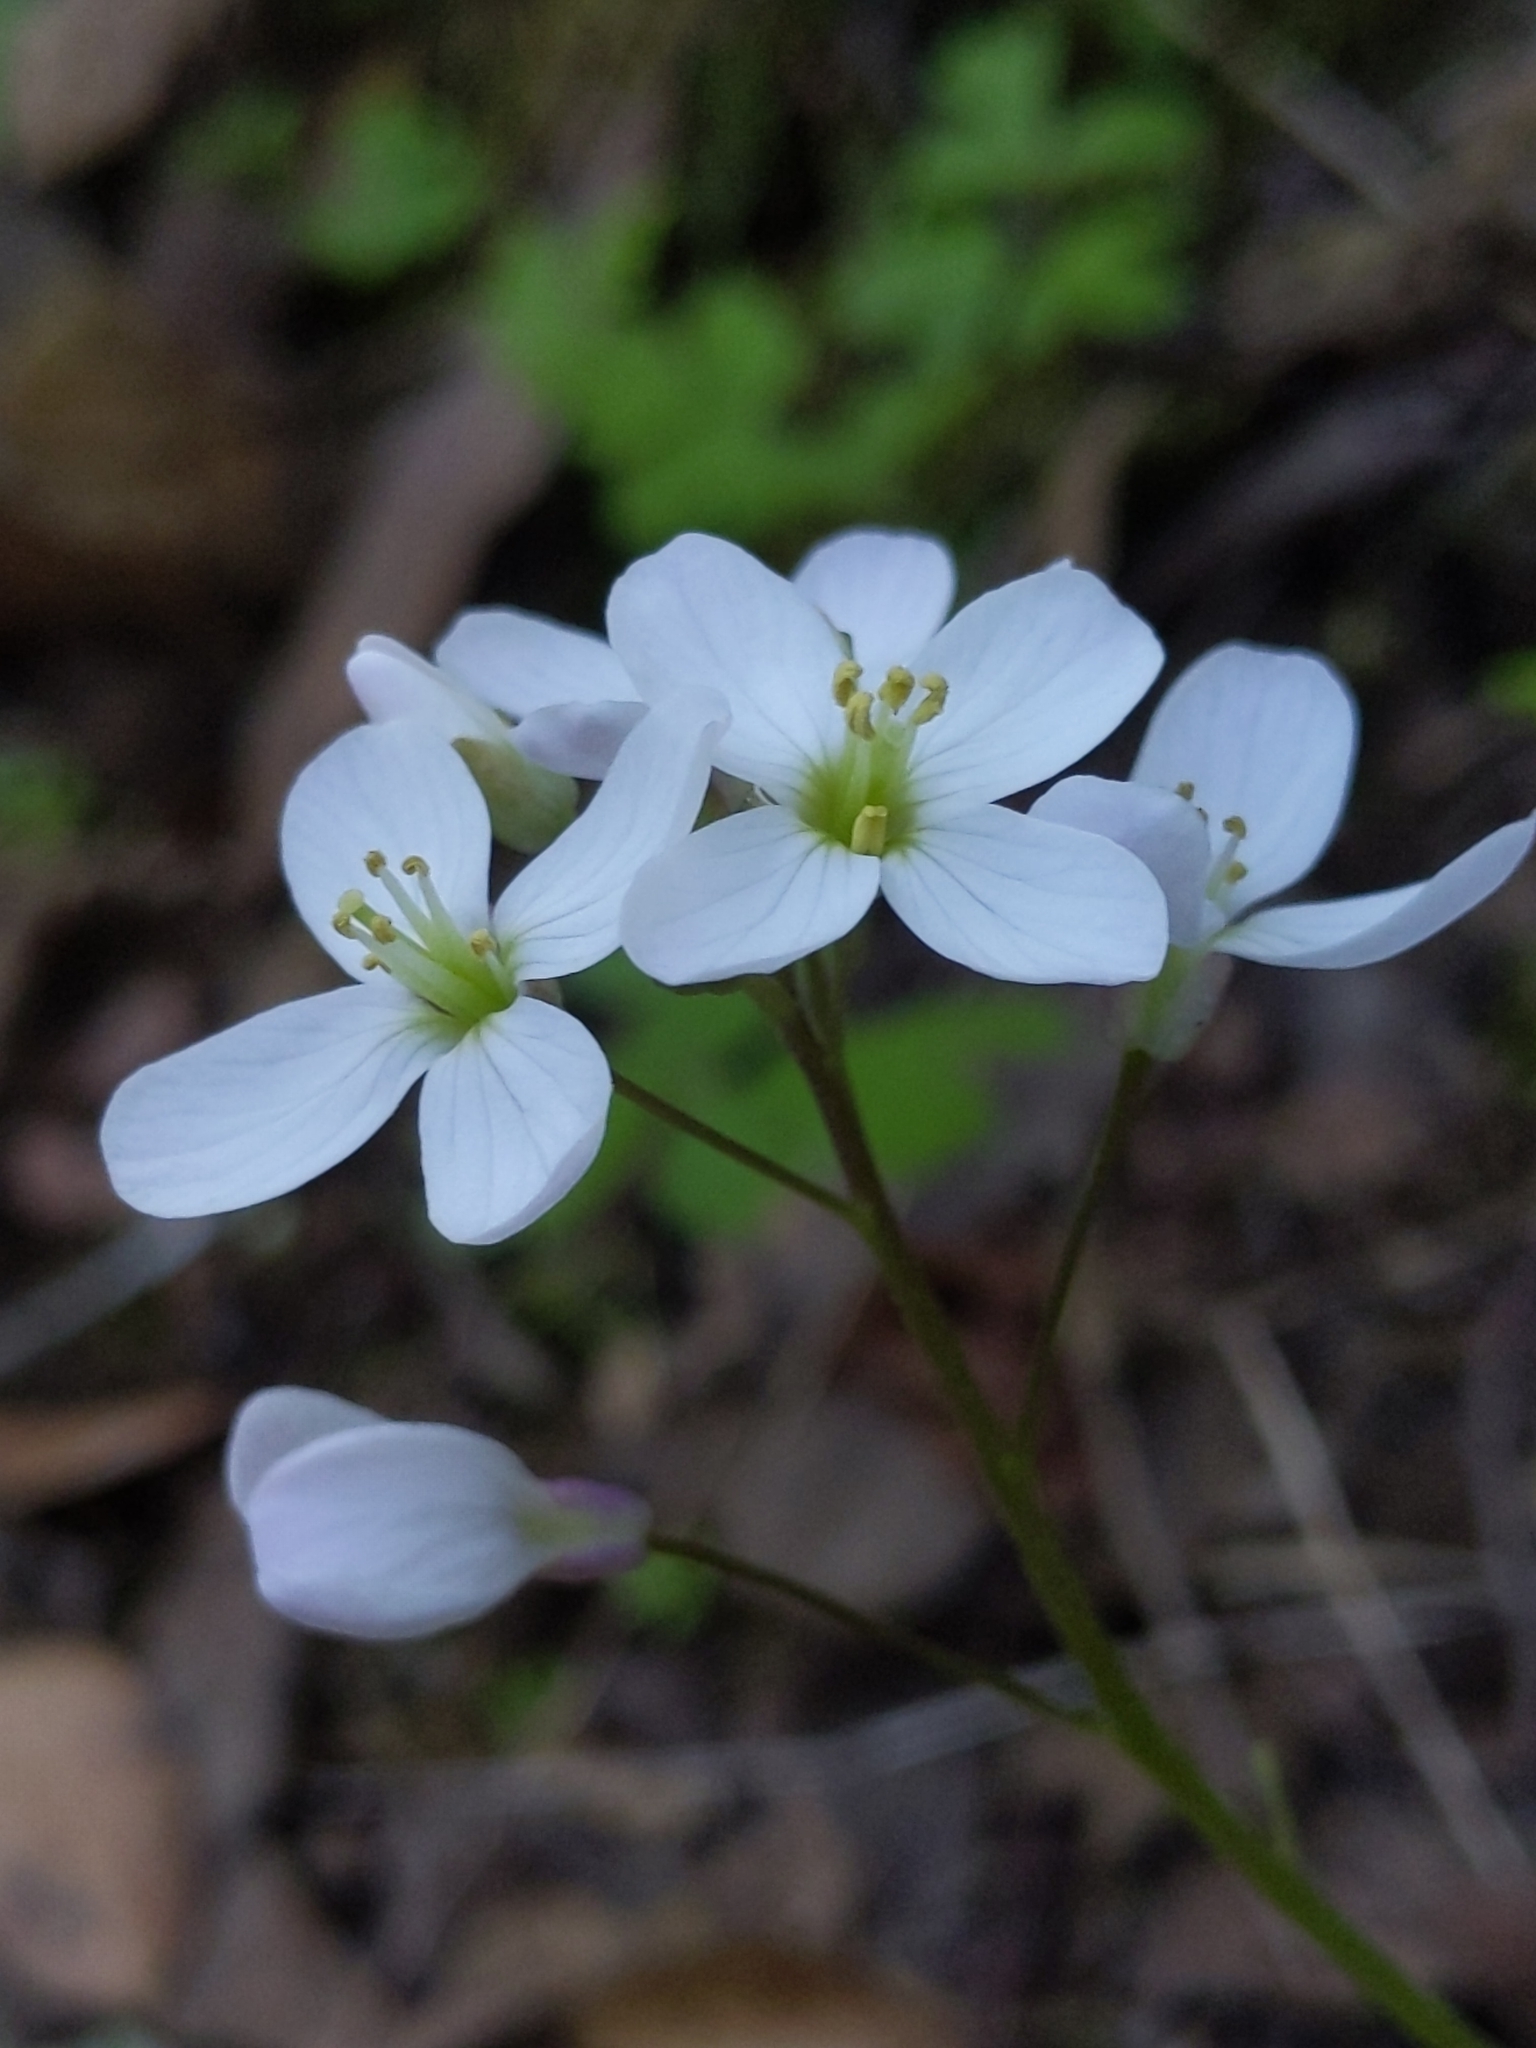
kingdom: Plantae
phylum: Tracheophyta
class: Magnoliopsida
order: Brassicales
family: Brassicaceae
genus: Cardamine
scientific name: Cardamine californica
